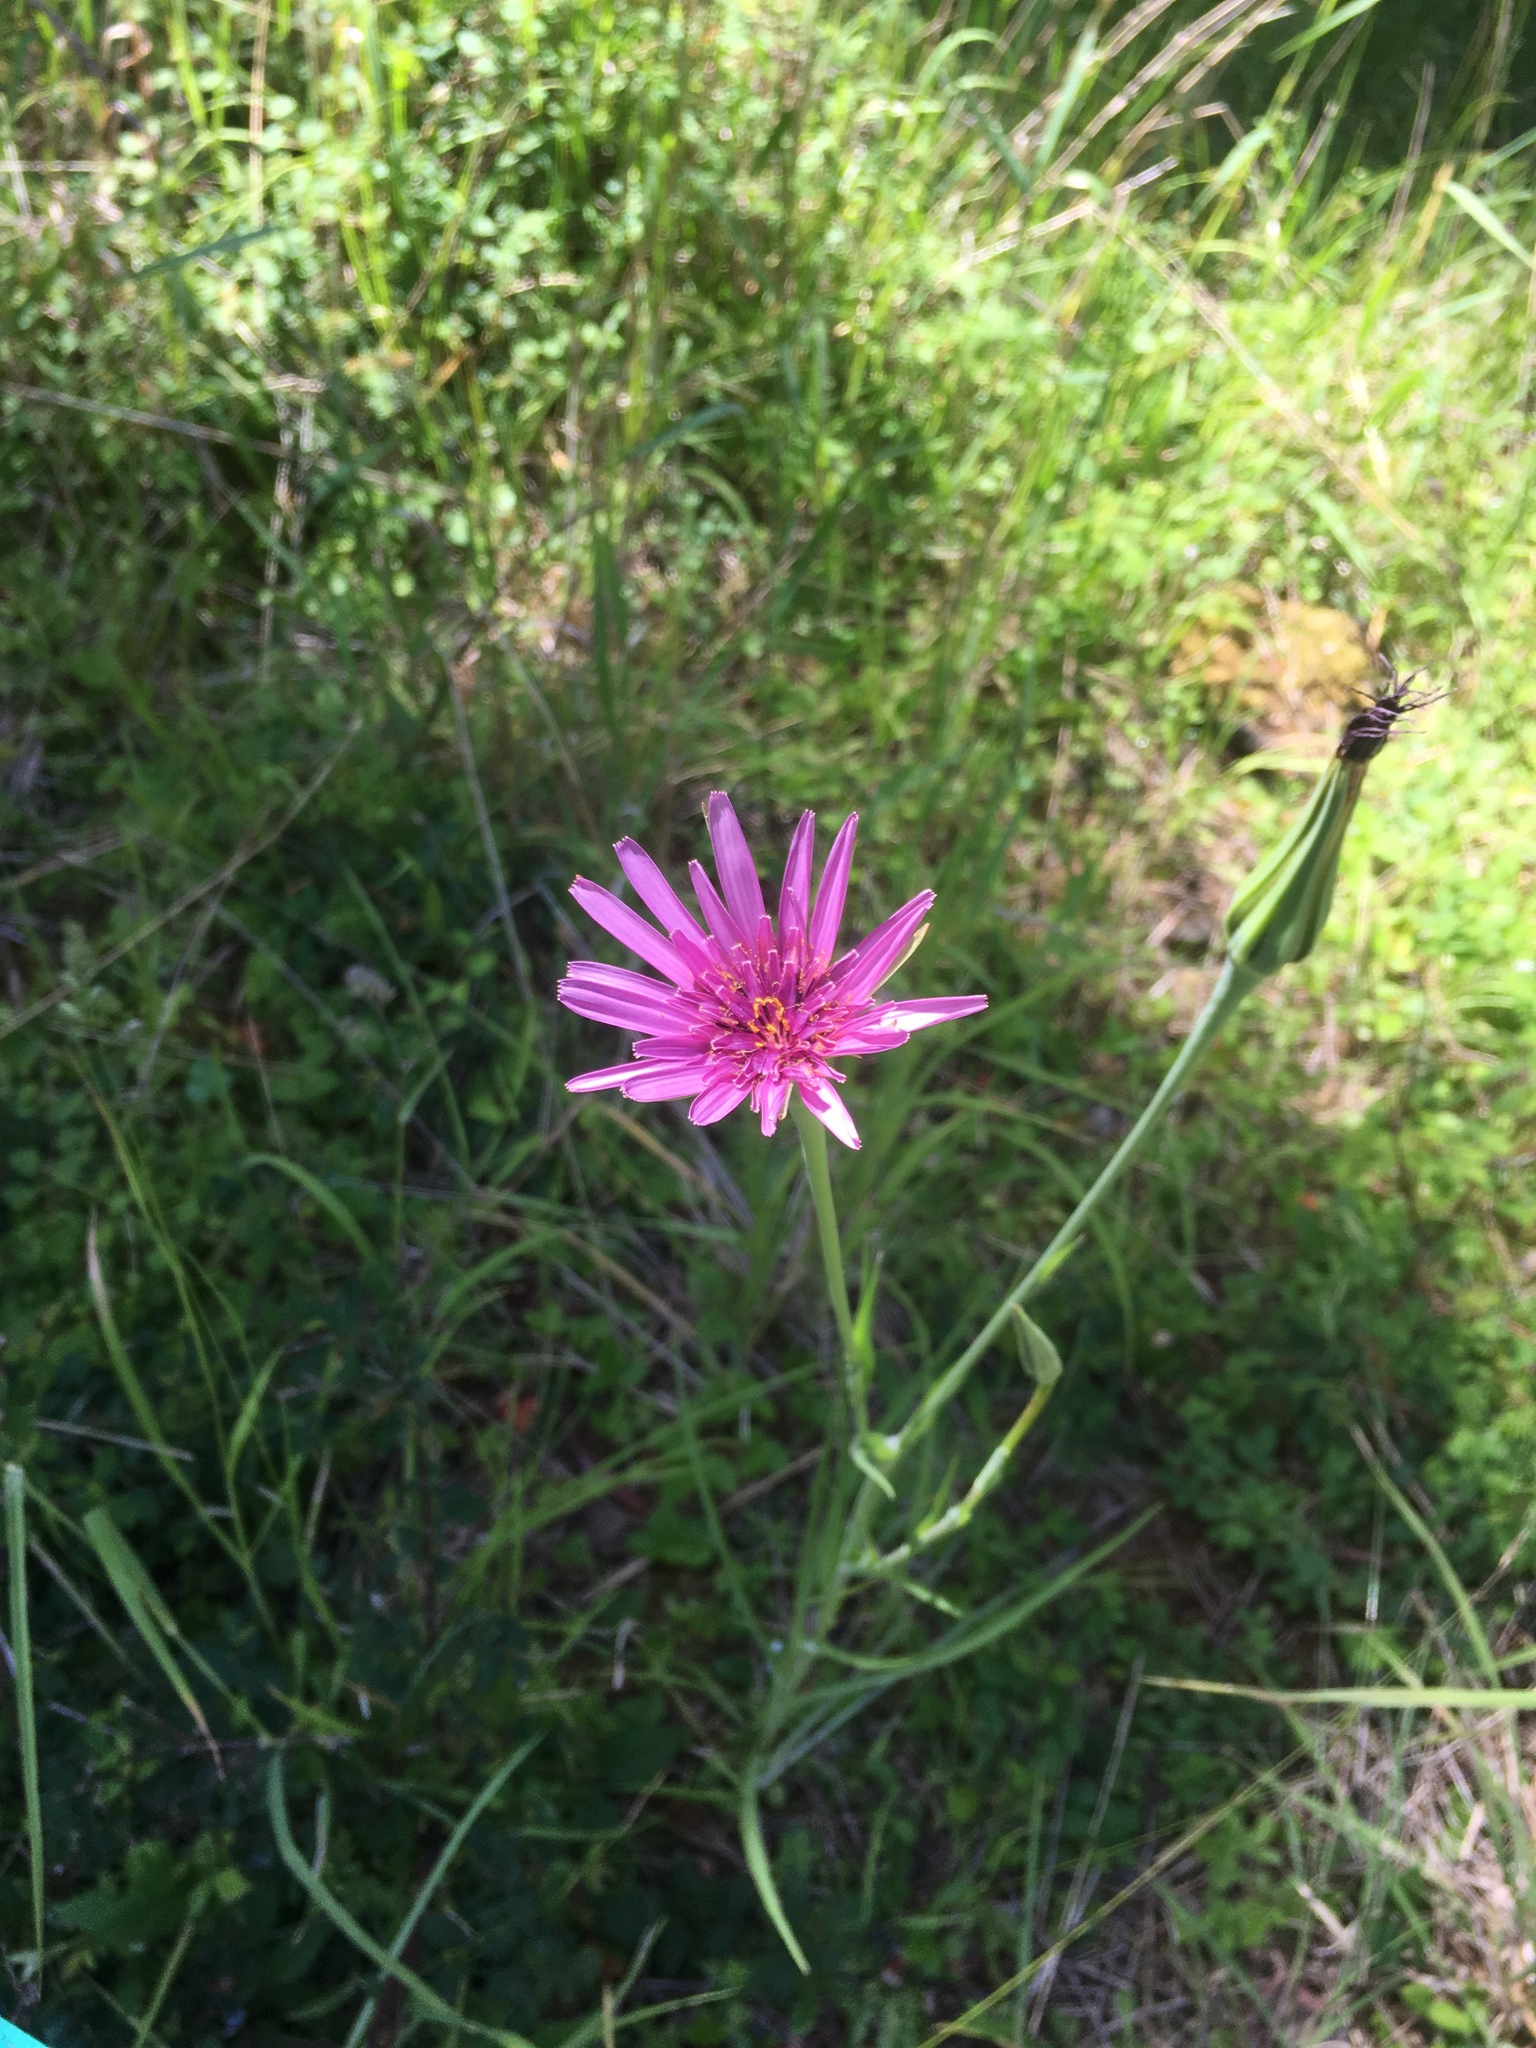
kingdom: Plantae
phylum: Tracheophyta
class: Magnoliopsida
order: Asterales
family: Asteraceae
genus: Tragopogon
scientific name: Tragopogon porrifolius
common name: Salsify
